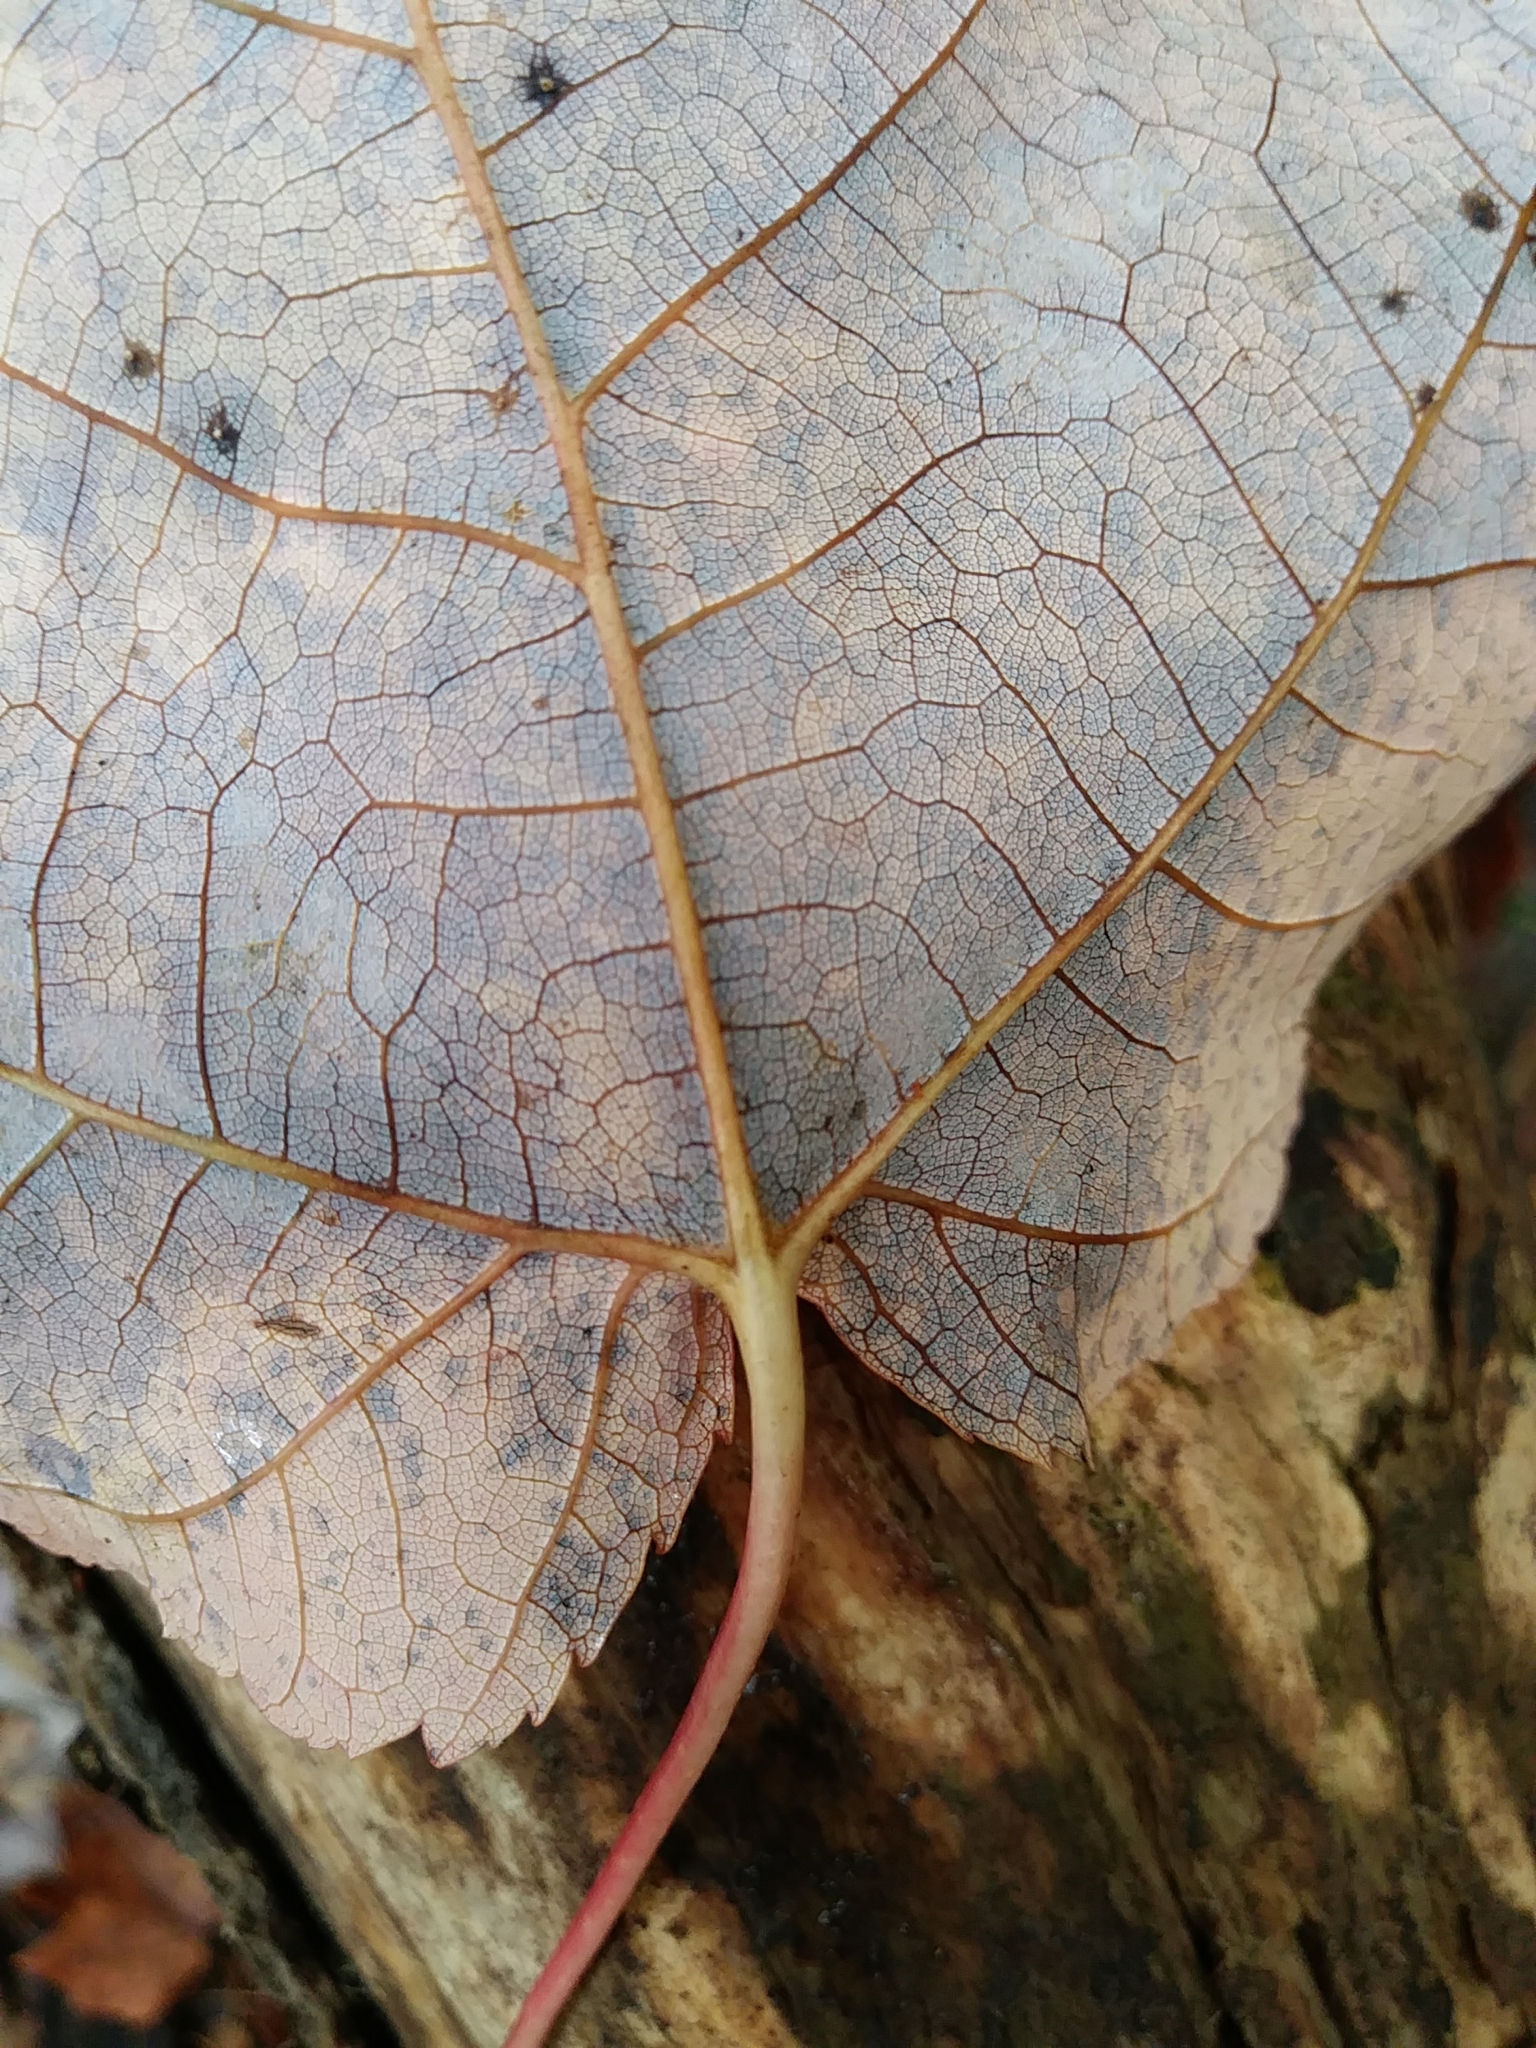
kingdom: Plantae
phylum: Tracheophyta
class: Magnoliopsida
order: Sapindales
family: Sapindaceae
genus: Acer
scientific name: Acer rubrum
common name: Red maple
